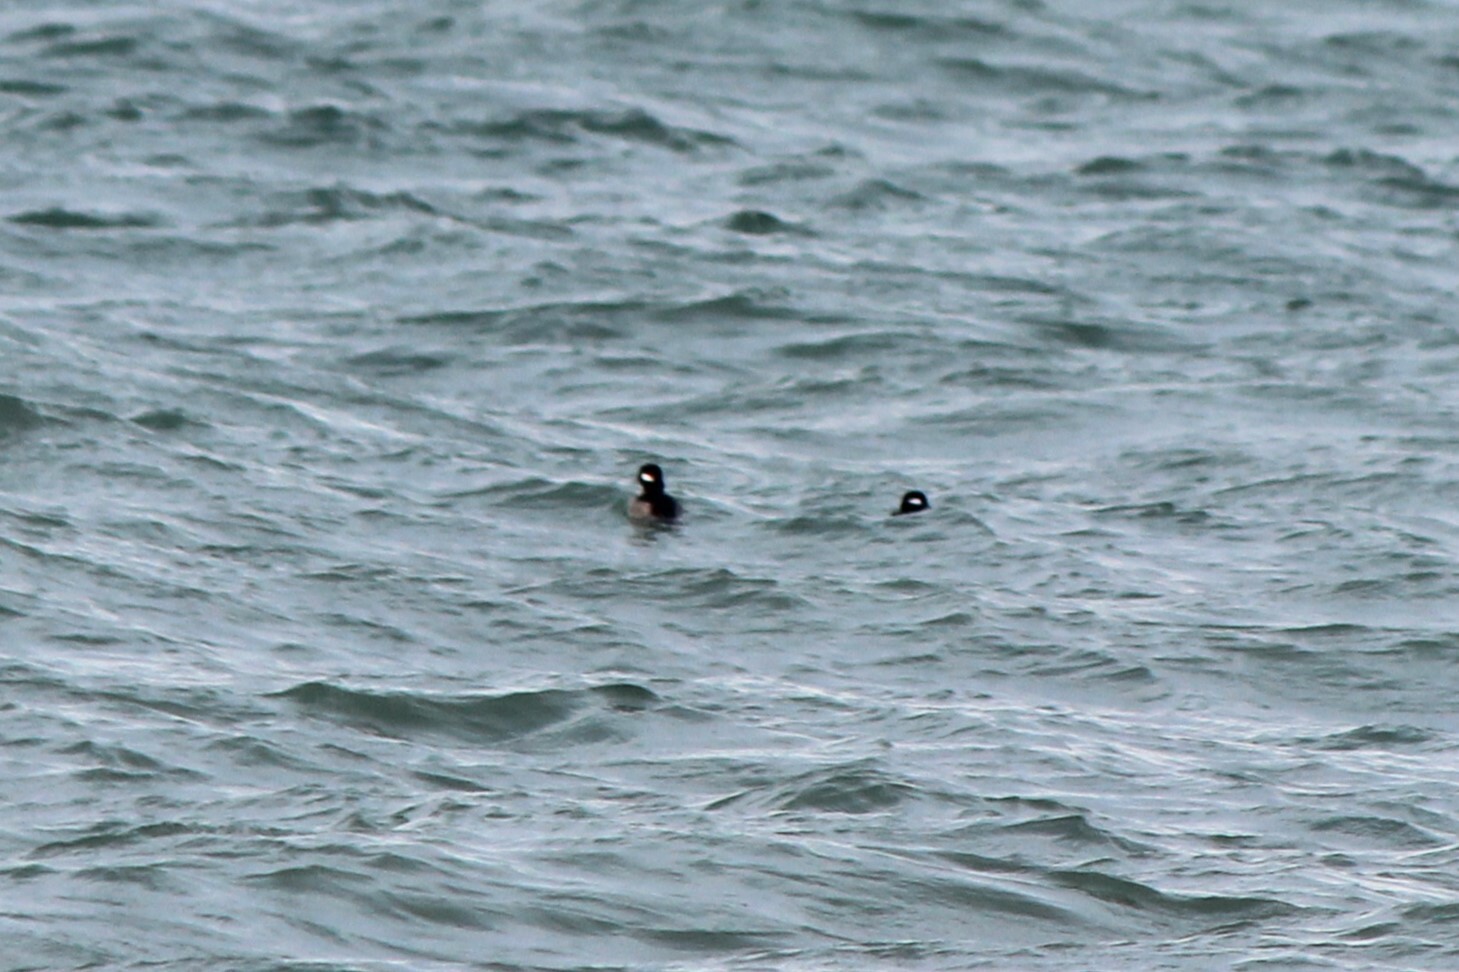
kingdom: Animalia
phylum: Chordata
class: Aves
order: Anseriformes
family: Anatidae
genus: Bucephala
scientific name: Bucephala albeola
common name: Bufflehead
